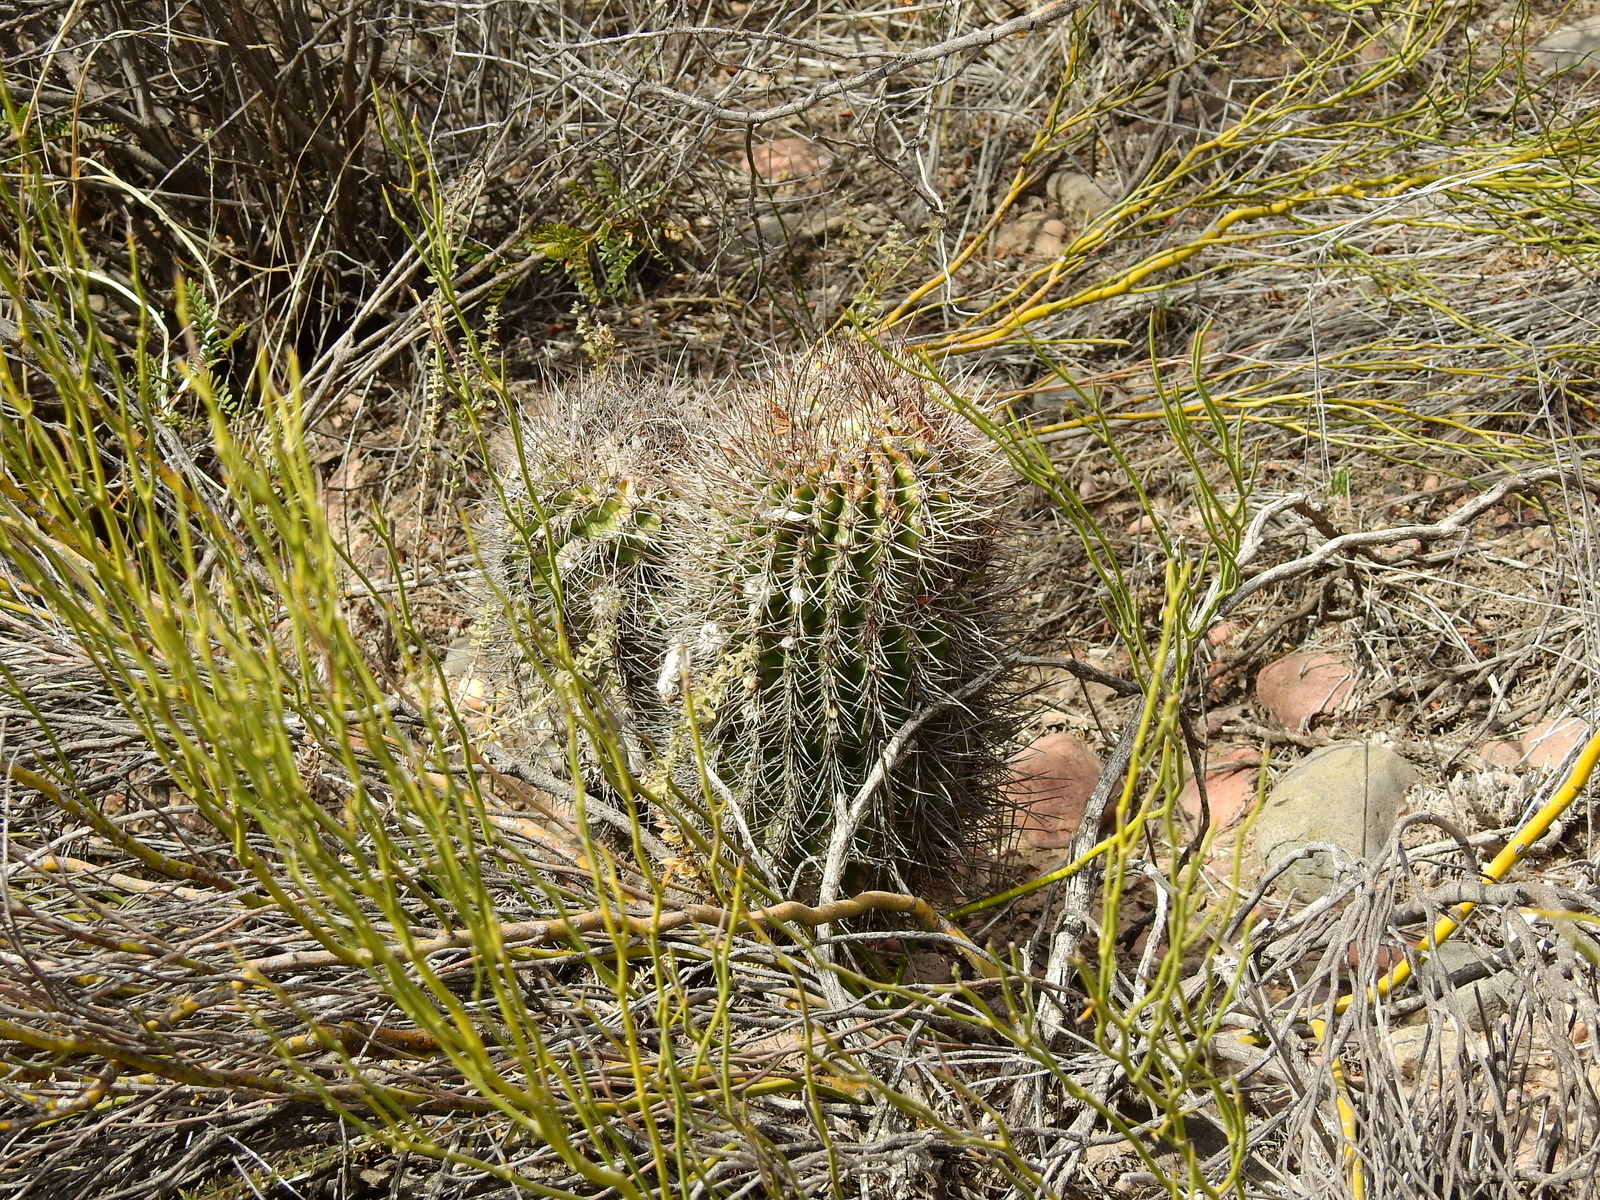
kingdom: Plantae
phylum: Tracheophyta
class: Magnoliopsida
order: Caryophyllales
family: Cactaceae
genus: Acanthocalycium
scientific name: Acanthocalycium leucanthum
